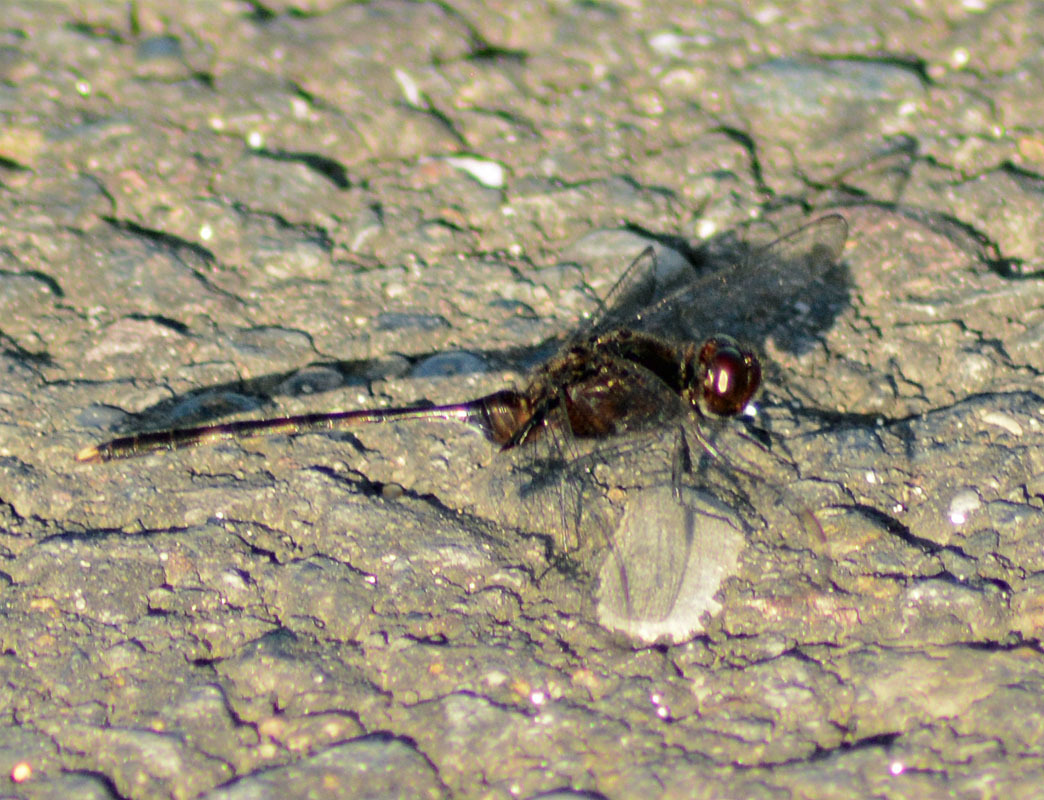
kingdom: Animalia
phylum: Arthropoda
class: Insecta
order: Odonata
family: Libellulidae
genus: Erythemis
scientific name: Erythemis plebeja
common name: Pin-tailed pondhawk
